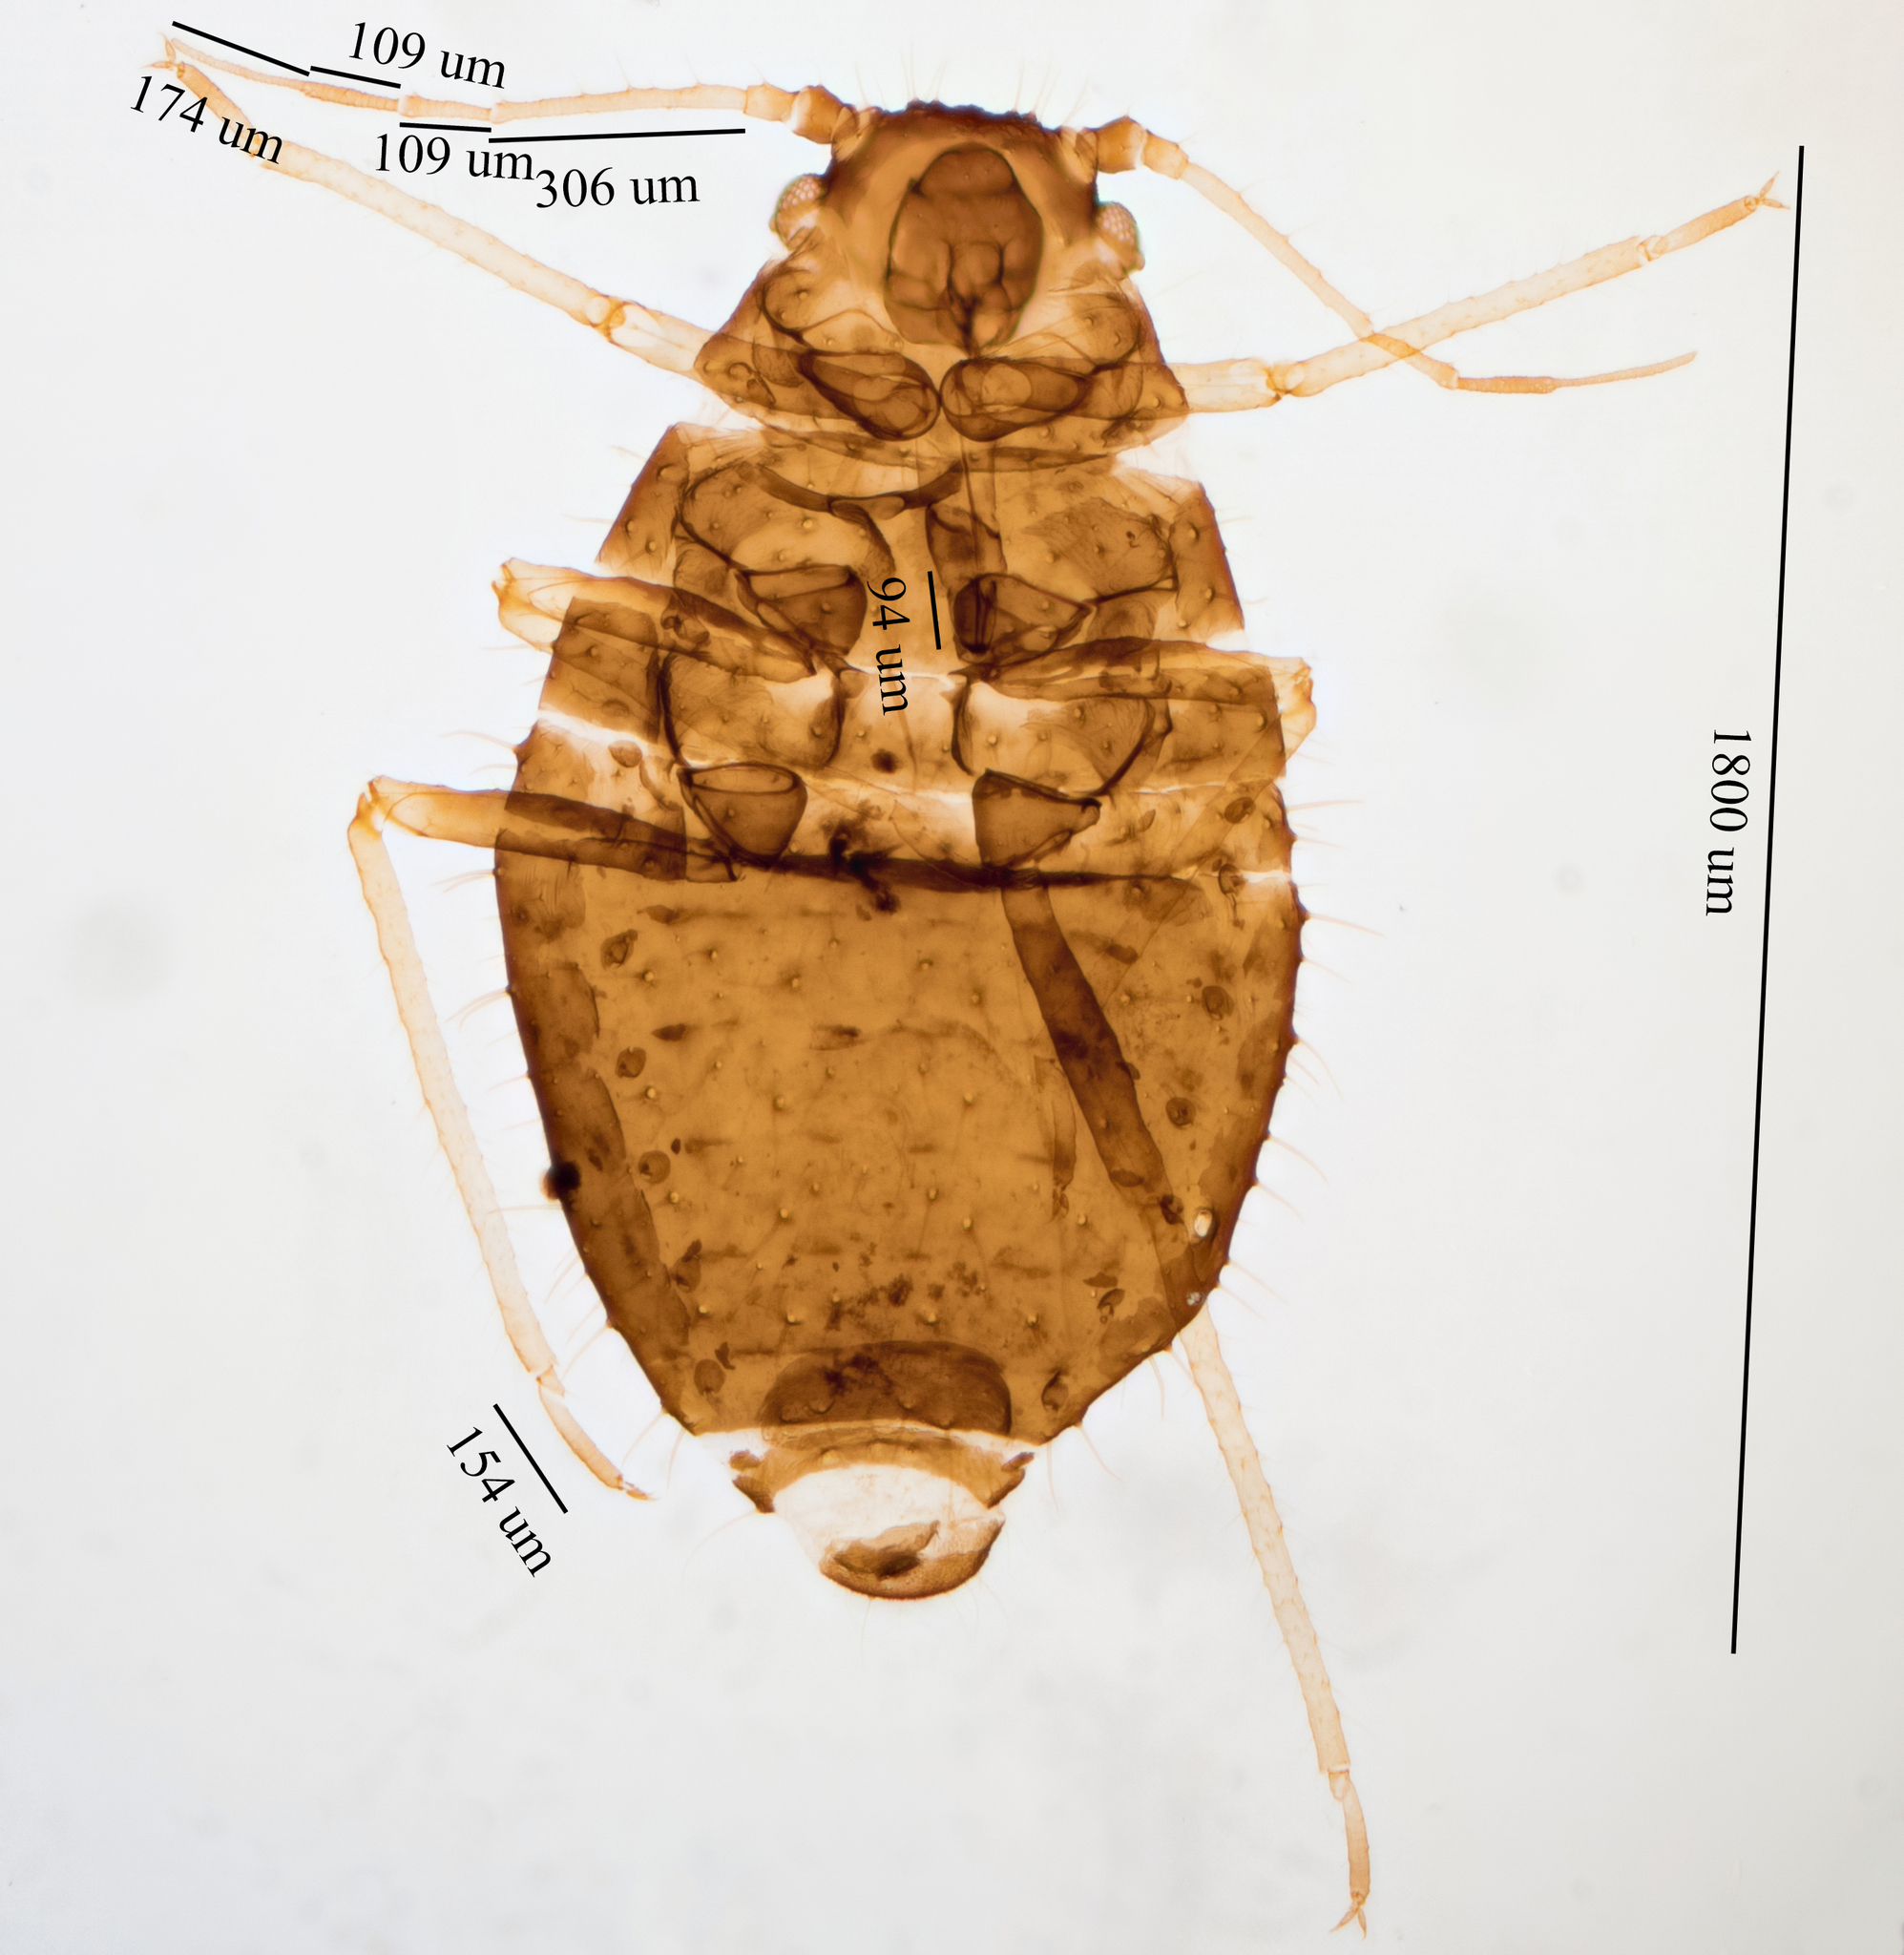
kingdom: Animalia
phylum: Arthropoda
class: Insecta
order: Hemiptera
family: Aphididae
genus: Sipha
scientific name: Sipha maydis
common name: Aphid
